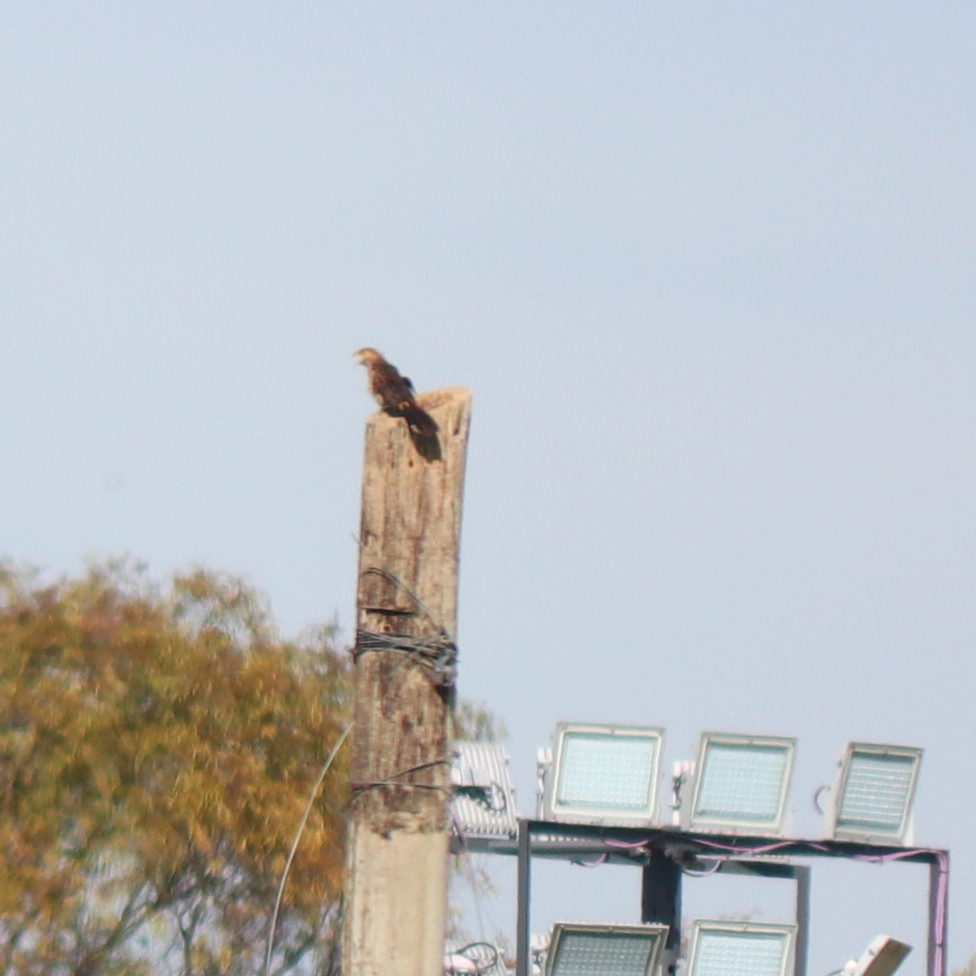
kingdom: Animalia
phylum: Chordata
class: Aves
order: Cuculiformes
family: Cuculidae
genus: Guira
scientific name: Guira guira
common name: Guira cuckoo
